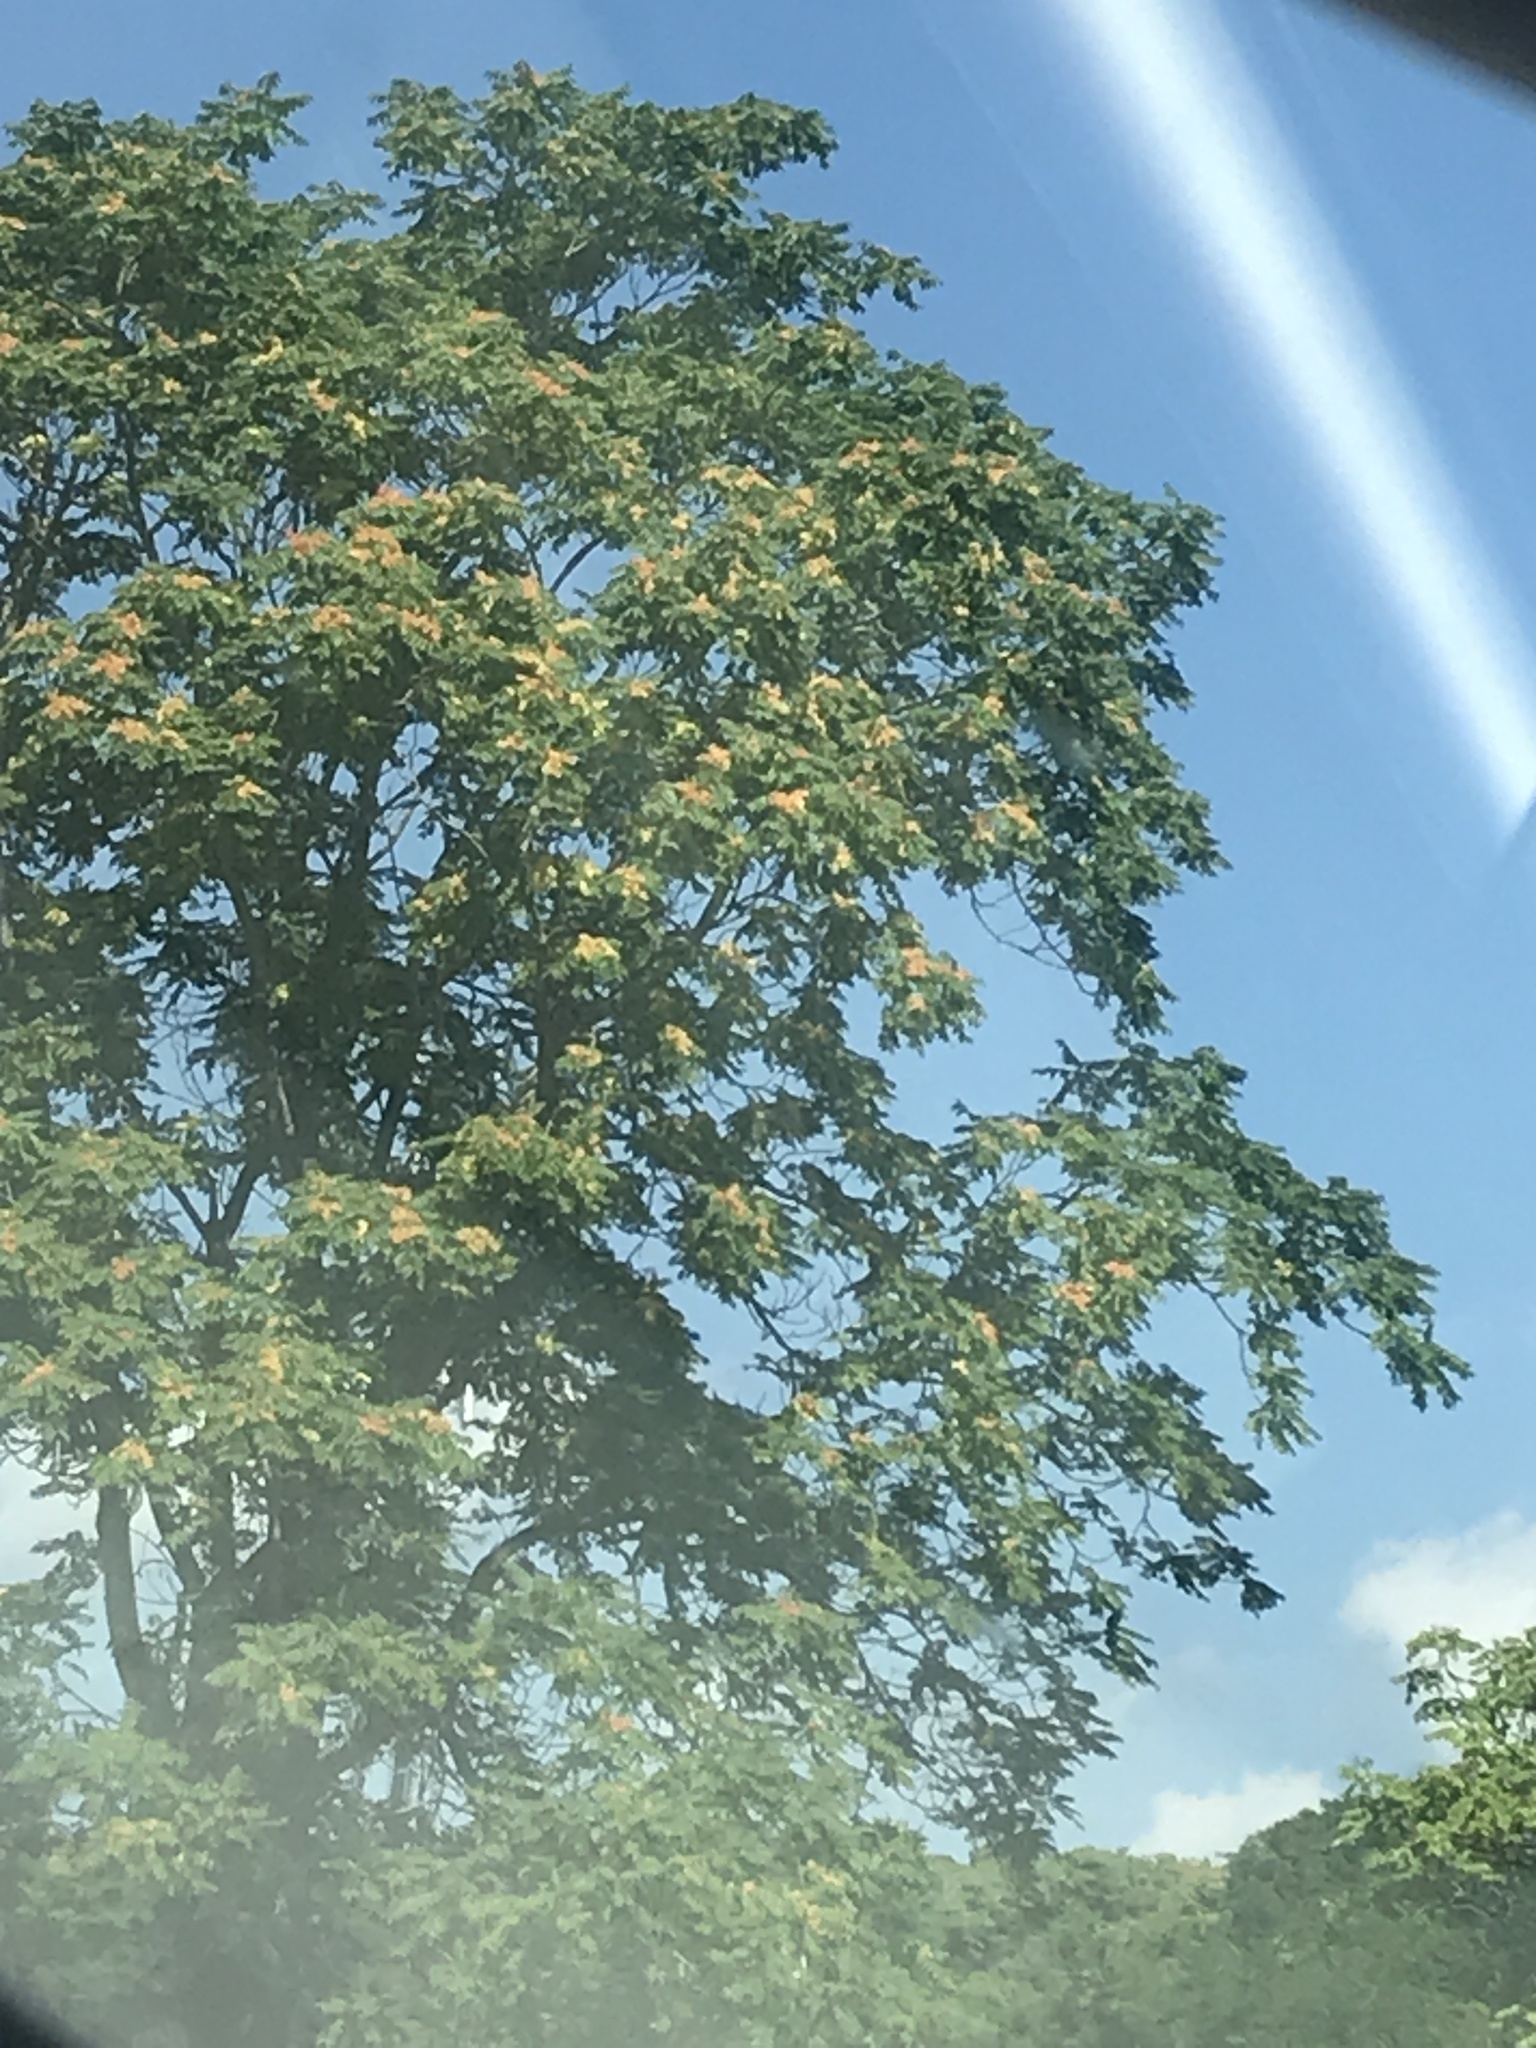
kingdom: Plantae
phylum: Tracheophyta
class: Magnoliopsida
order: Sapindales
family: Simaroubaceae
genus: Ailanthus
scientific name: Ailanthus altissima
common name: Tree-of-heaven
